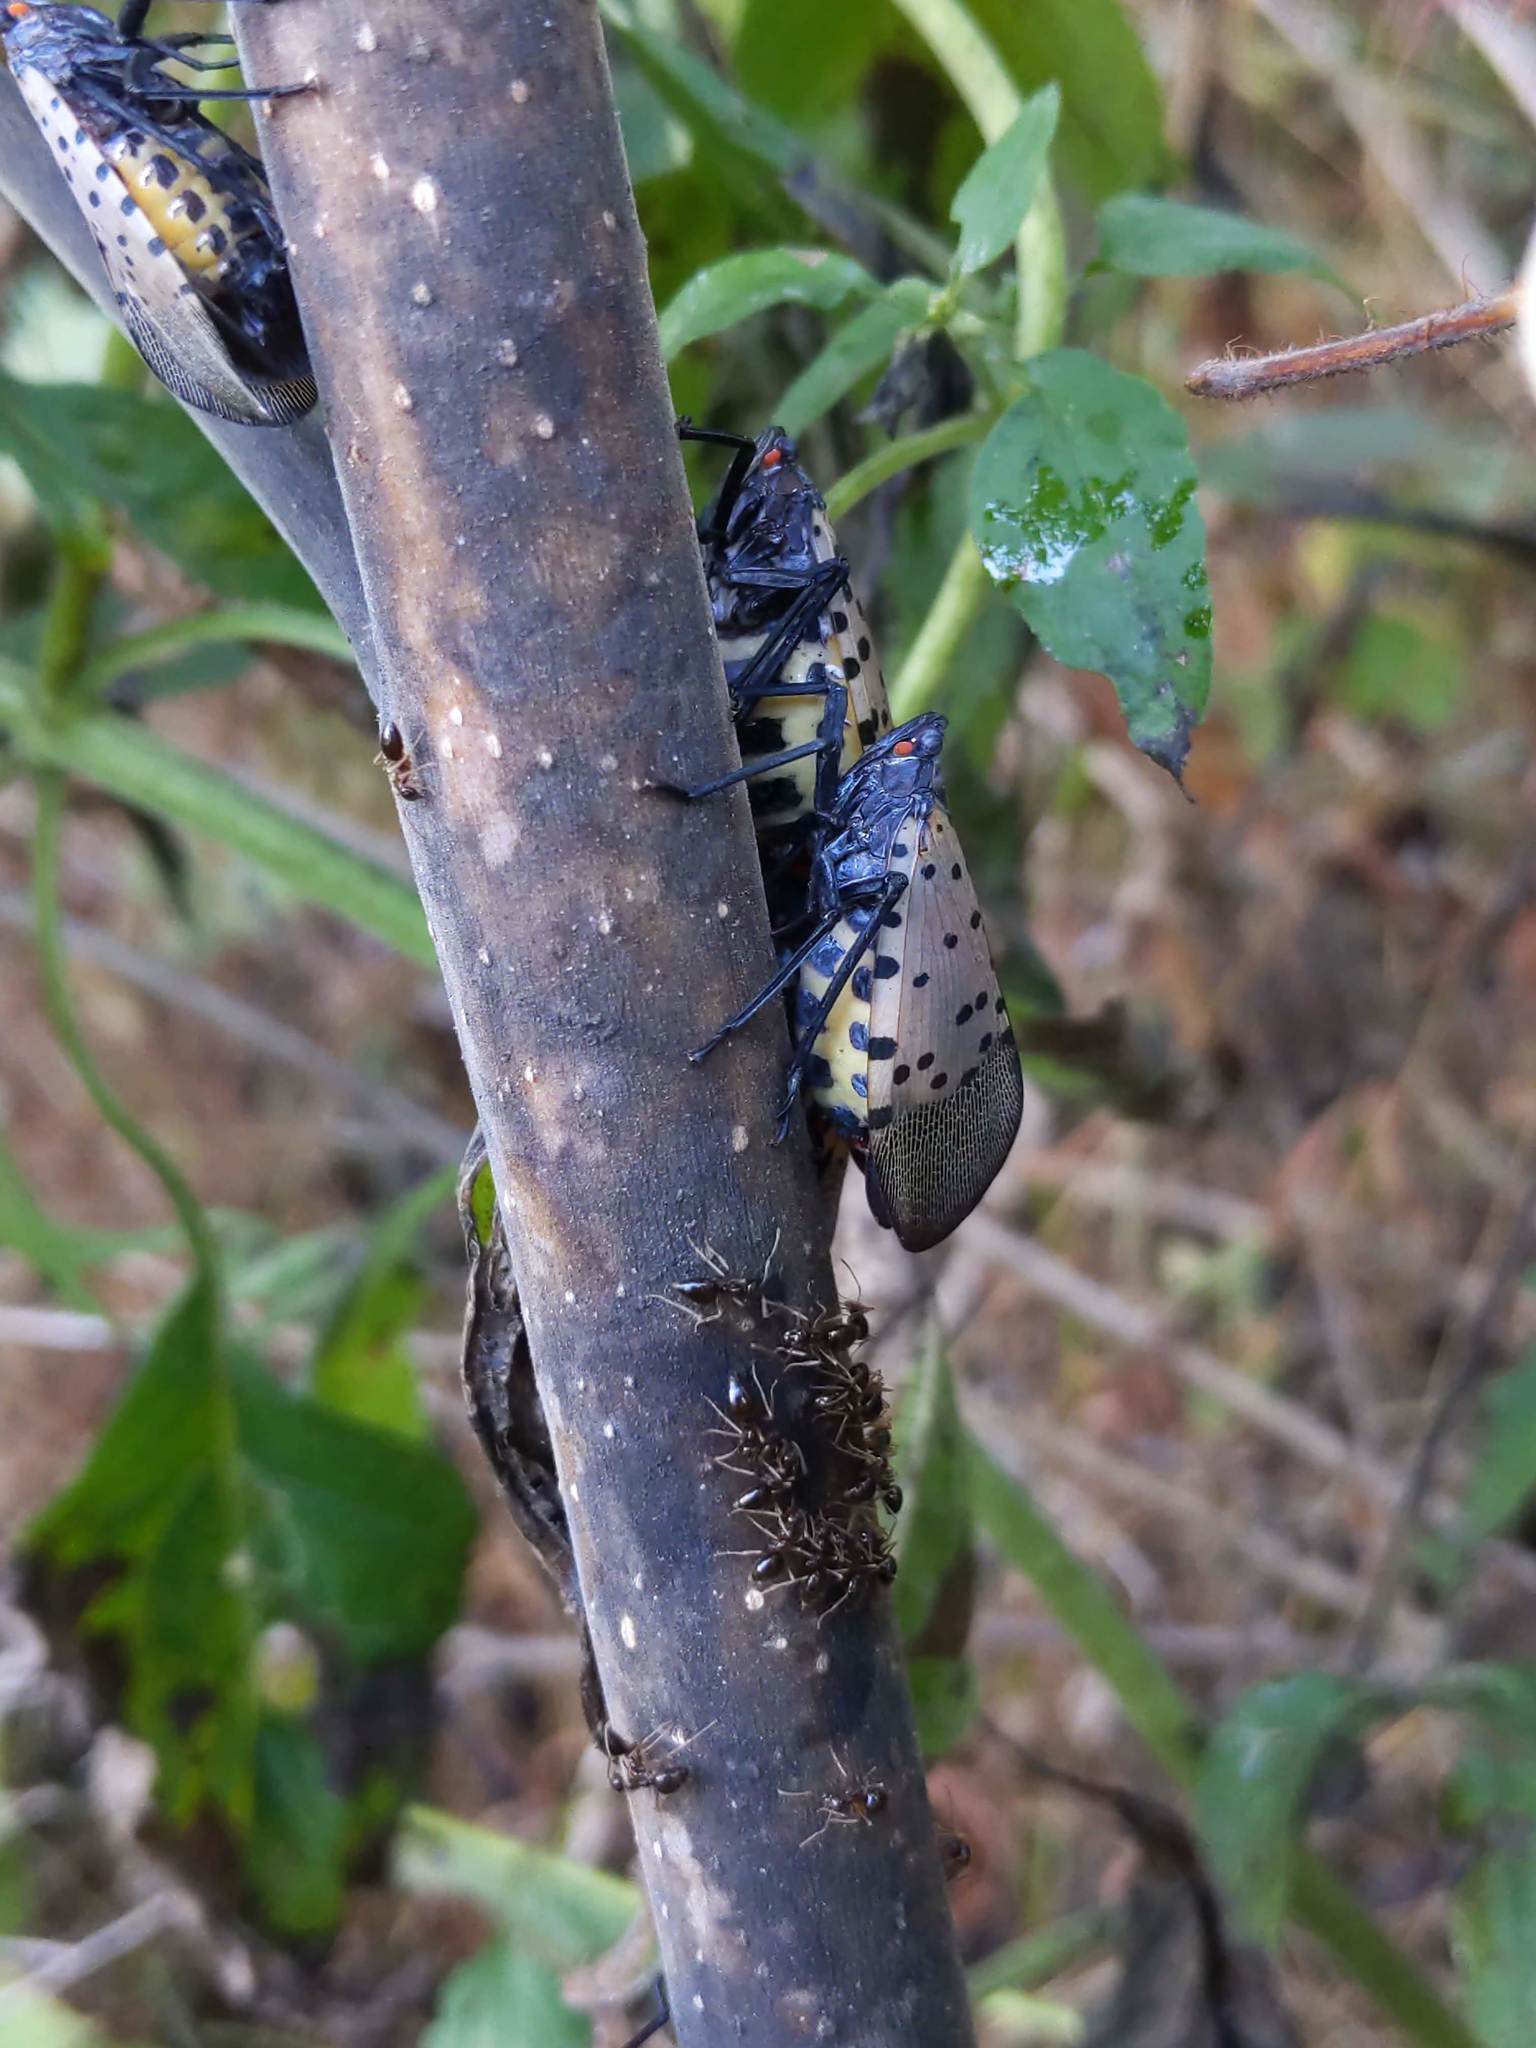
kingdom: Animalia
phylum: Arthropoda
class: Insecta
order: Hemiptera
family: Fulgoridae
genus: Lycorma
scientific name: Lycorma delicatula
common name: Spotted lanternfly
